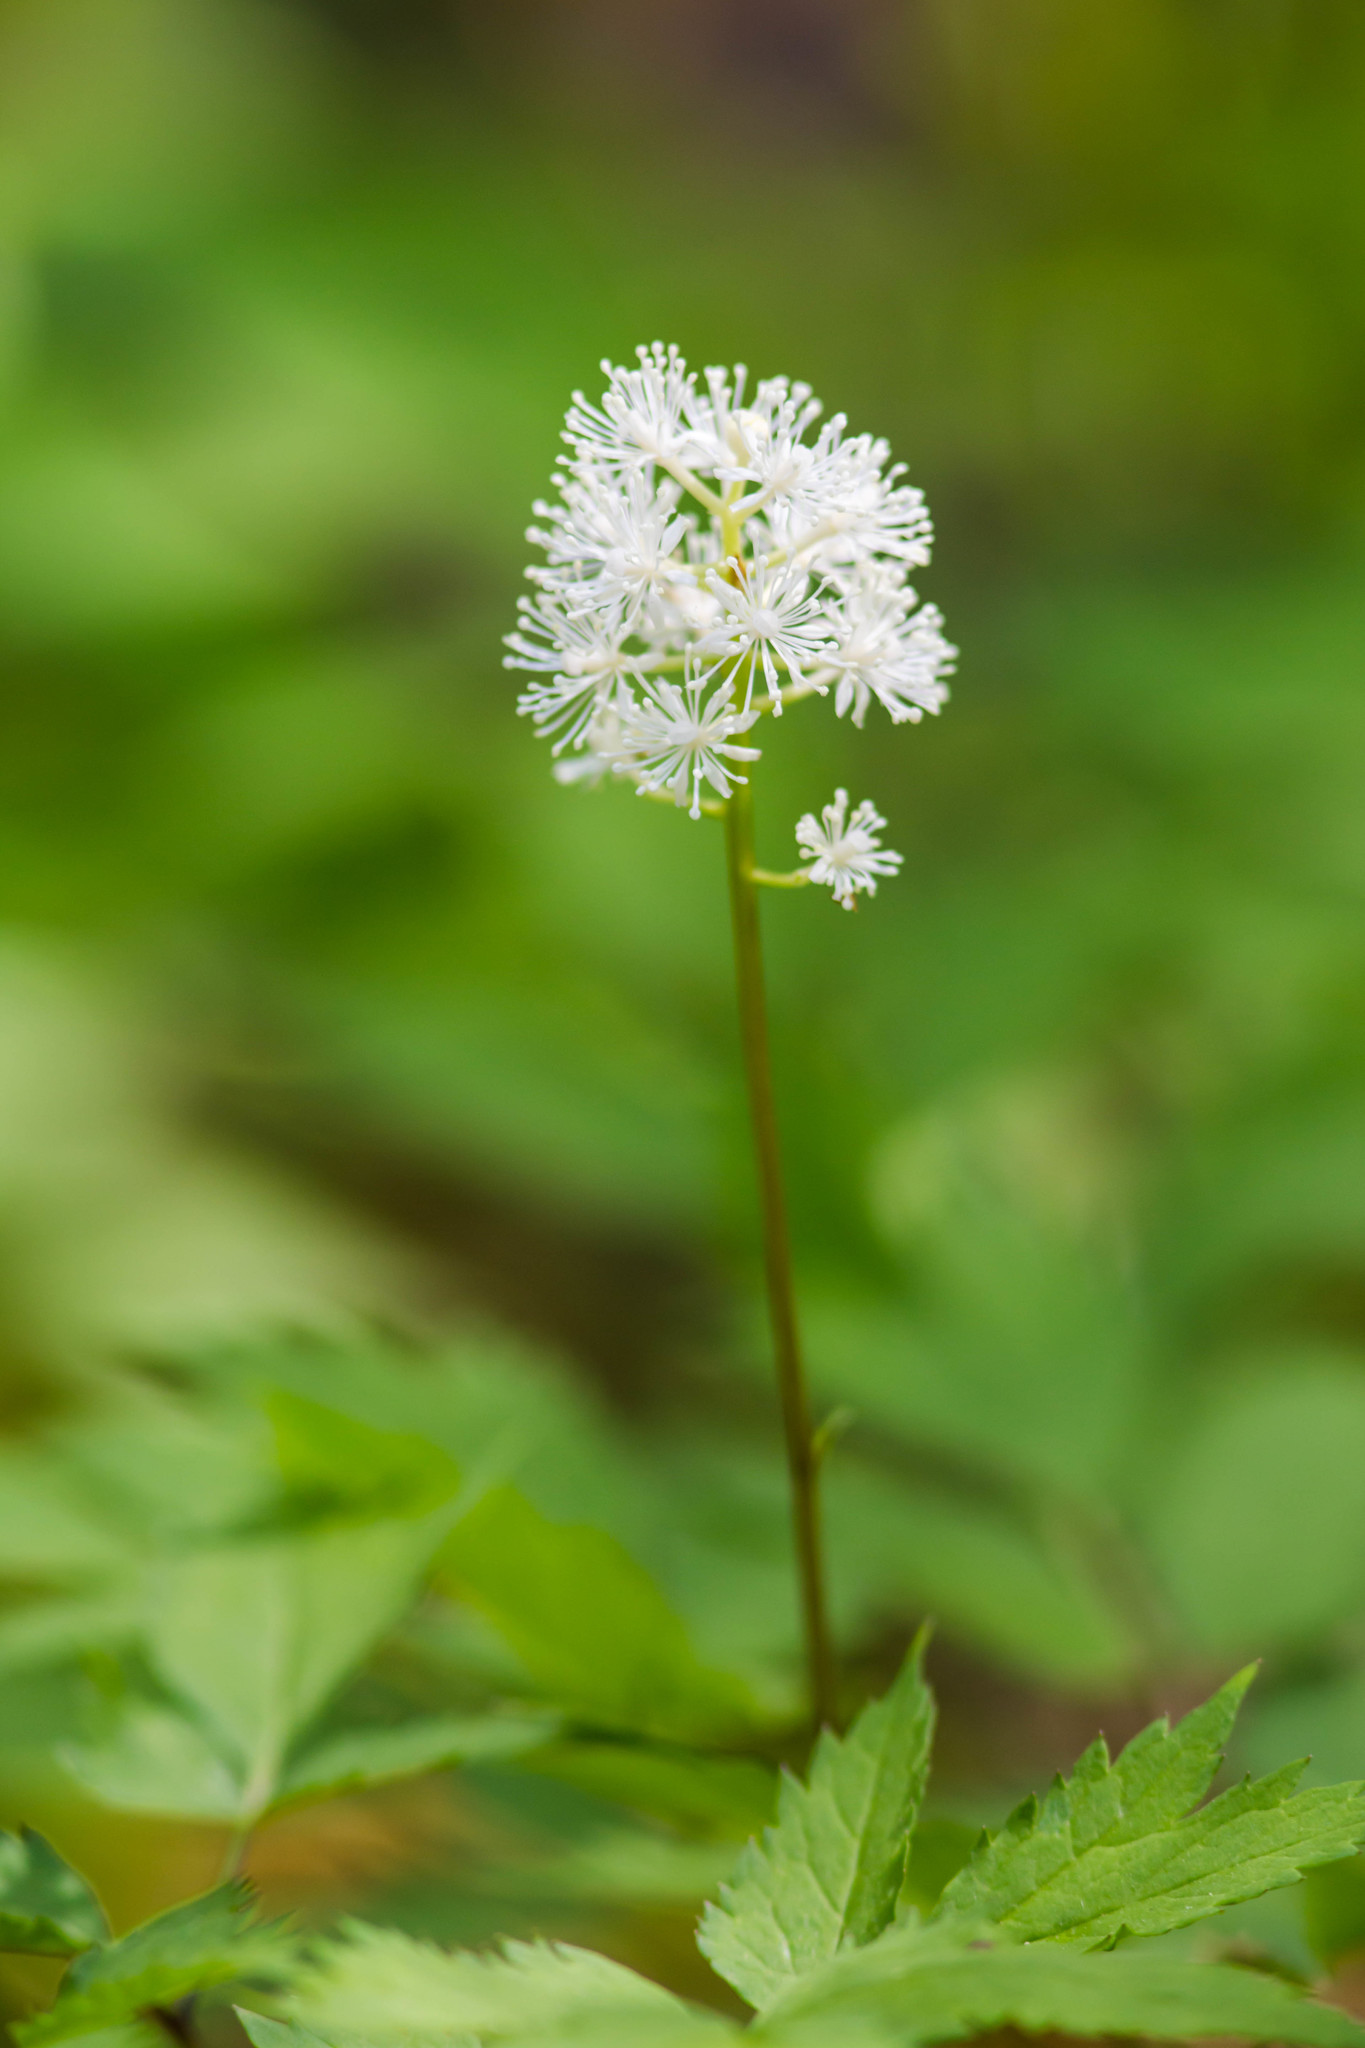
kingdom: Plantae
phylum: Tracheophyta
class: Magnoliopsida
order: Ranunculales
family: Ranunculaceae
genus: Actaea
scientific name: Actaea pachypoda
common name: Doll's-eyes
